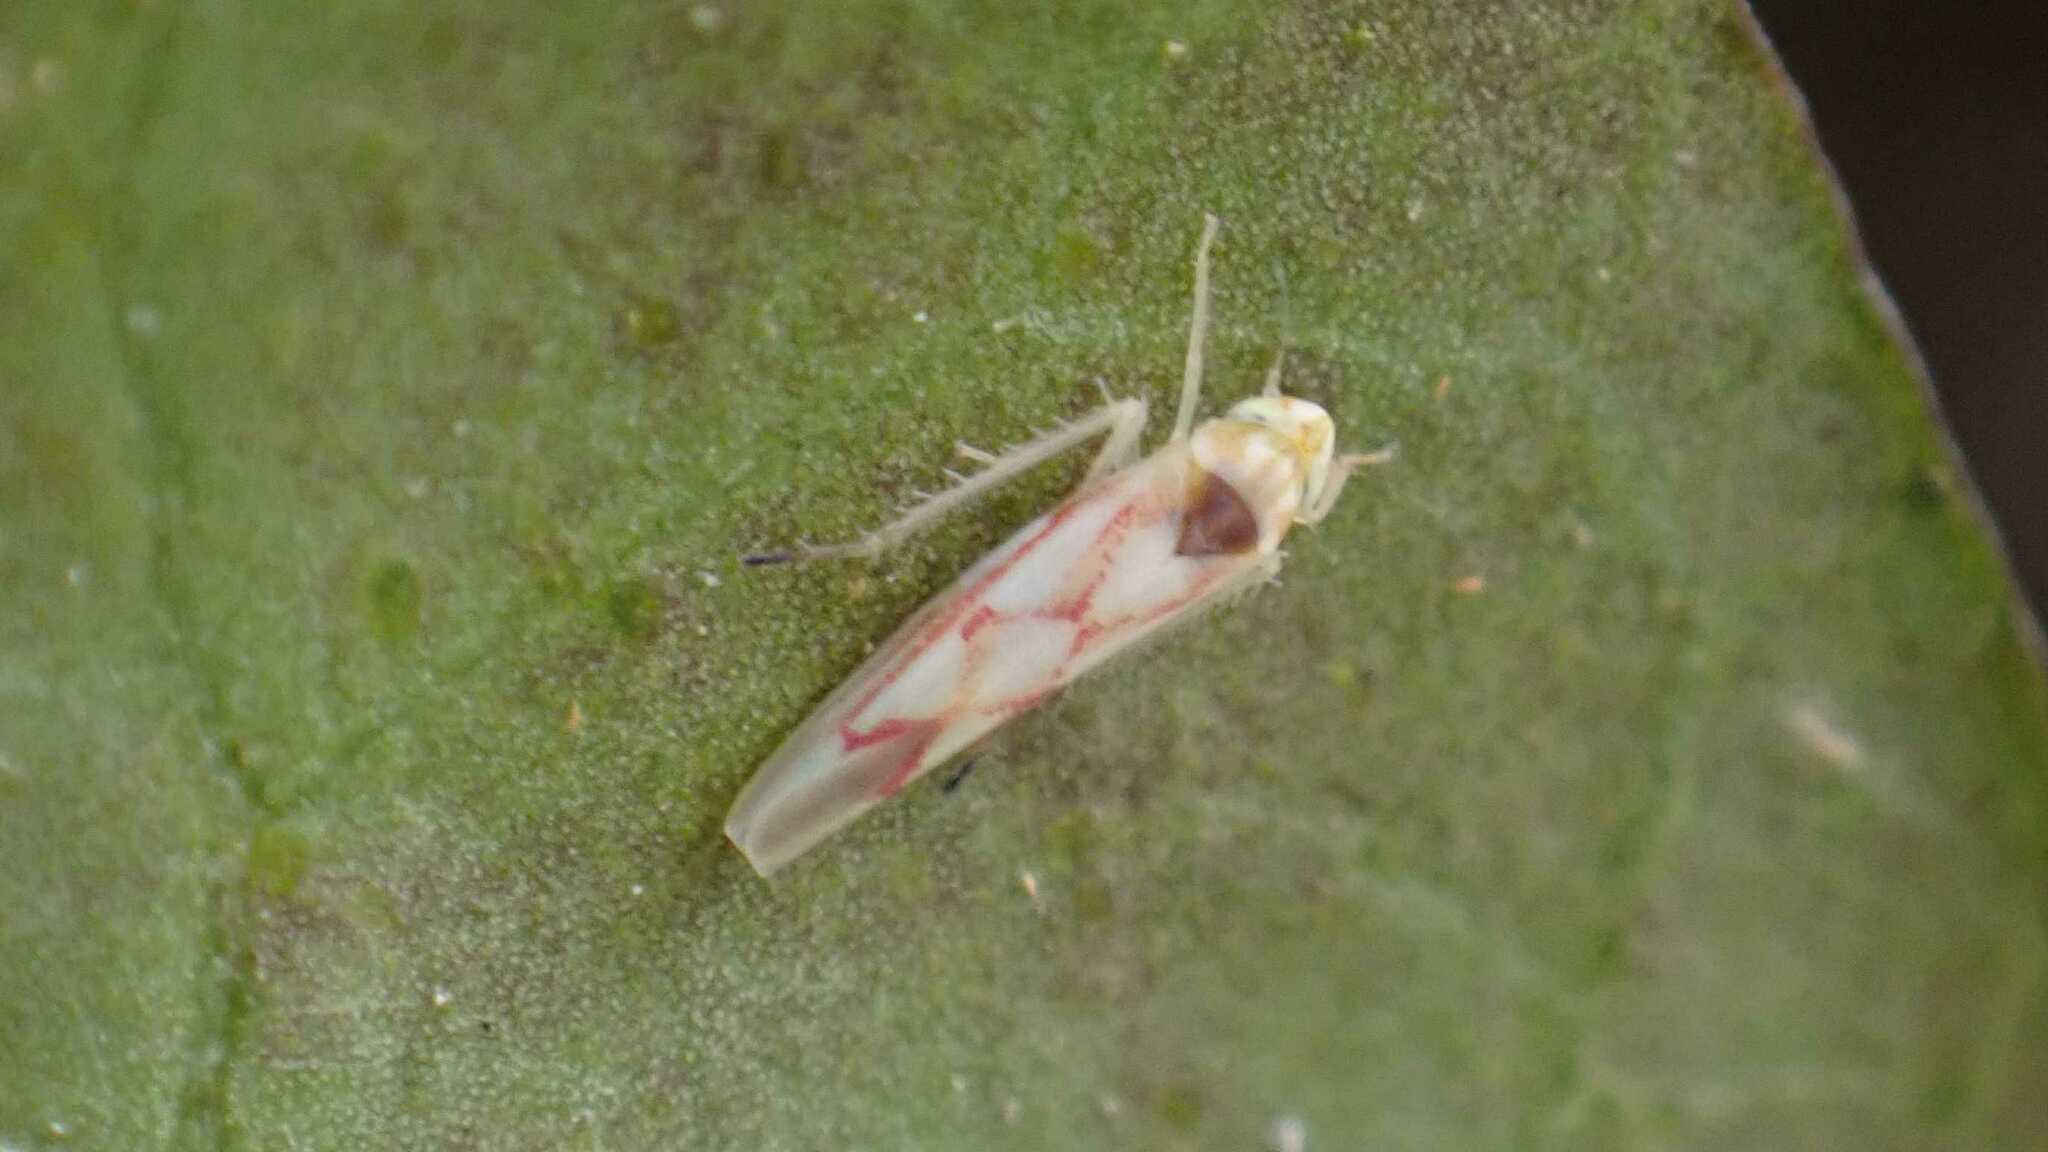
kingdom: Animalia
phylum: Arthropoda
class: Insecta
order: Hemiptera
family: Cicadellidae
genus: Zygina
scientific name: Zygina flammigera
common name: Leafhopper
